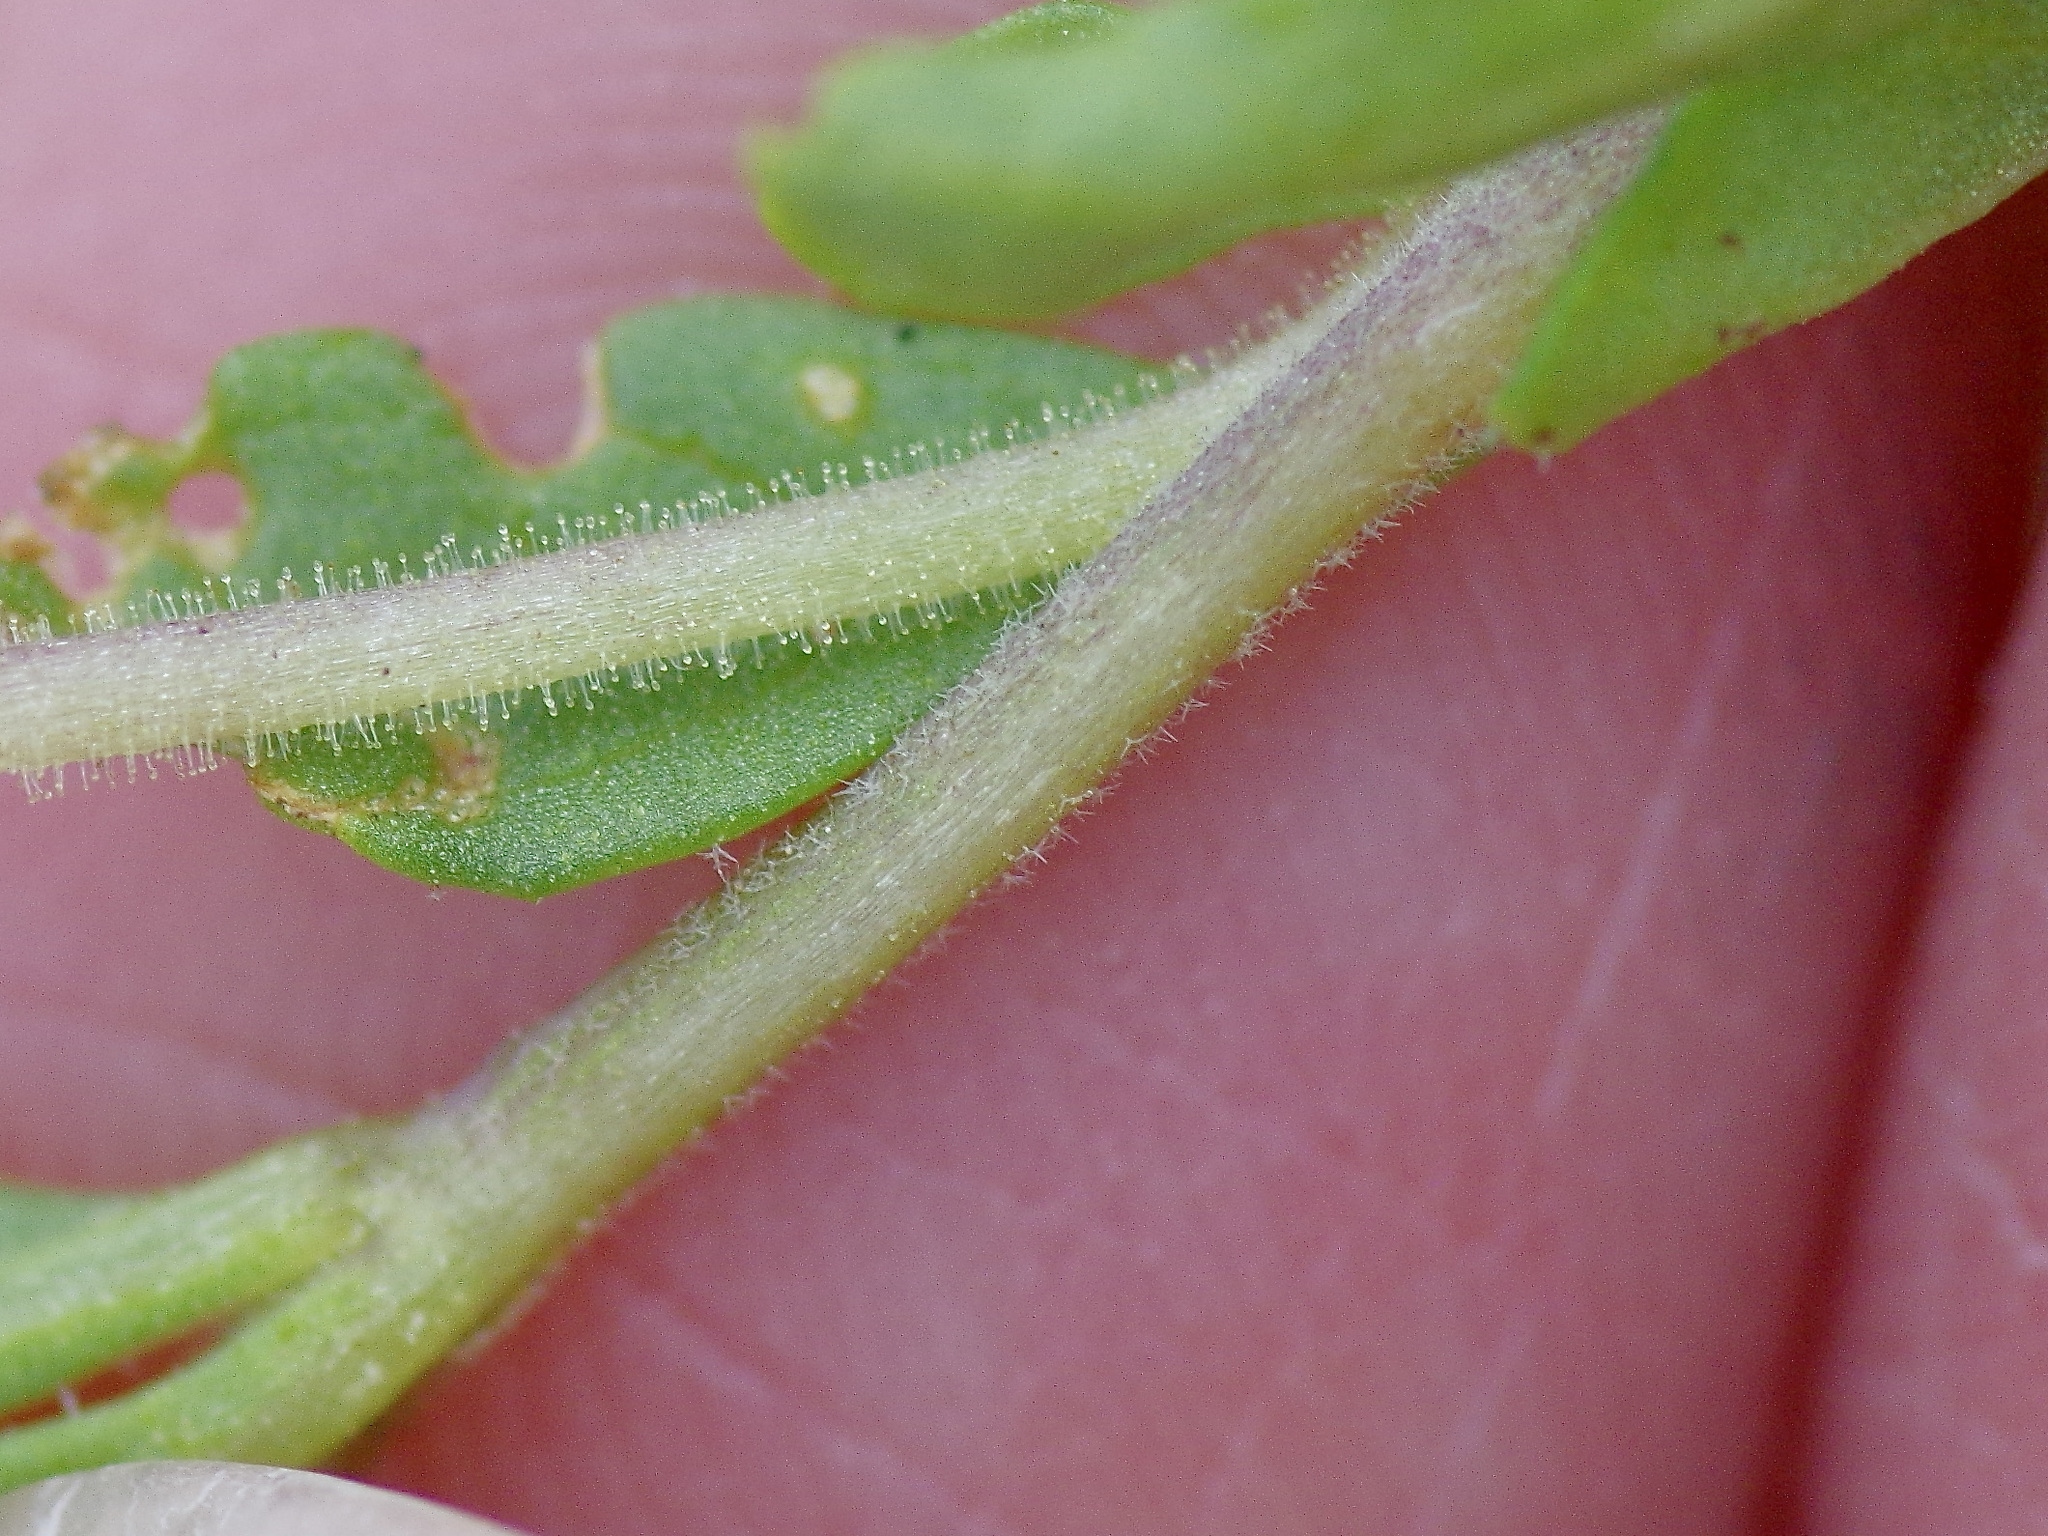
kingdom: Plantae
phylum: Tracheophyta
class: Magnoliopsida
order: Solanales
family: Solanaceae
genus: Chamaesaracha
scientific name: Chamaesaracha edwardsiana
